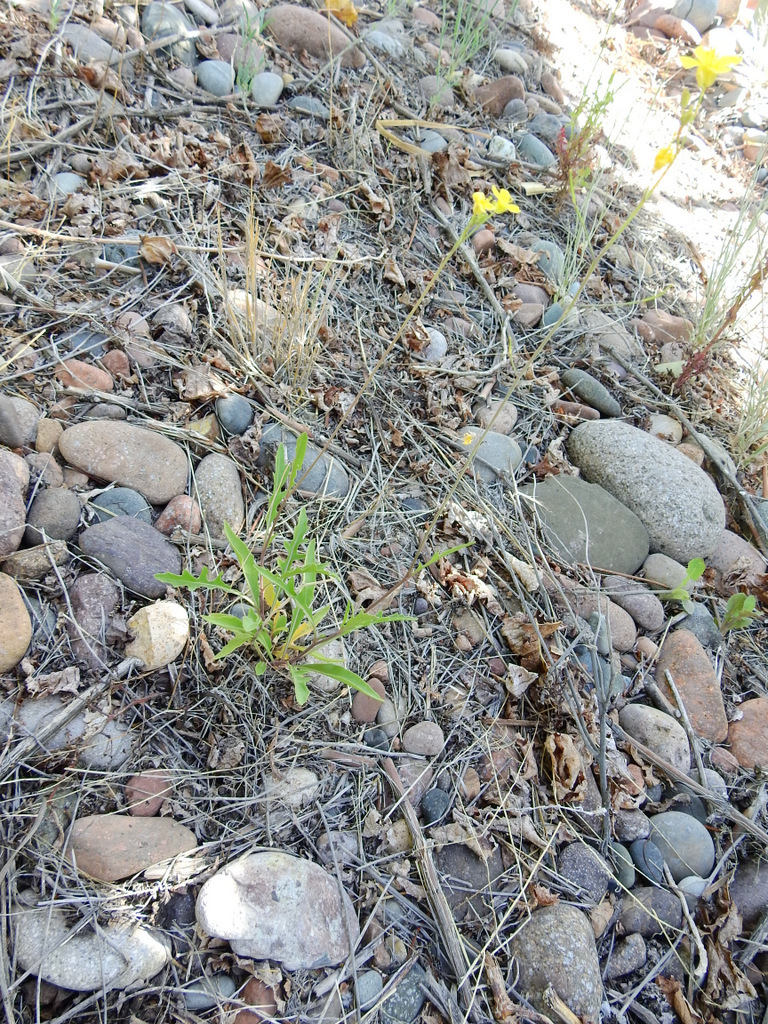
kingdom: Plantae
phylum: Tracheophyta
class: Magnoliopsida
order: Brassicales
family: Brassicaceae
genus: Diplotaxis
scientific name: Diplotaxis tenuifolia
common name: Perennial wall-rocket
